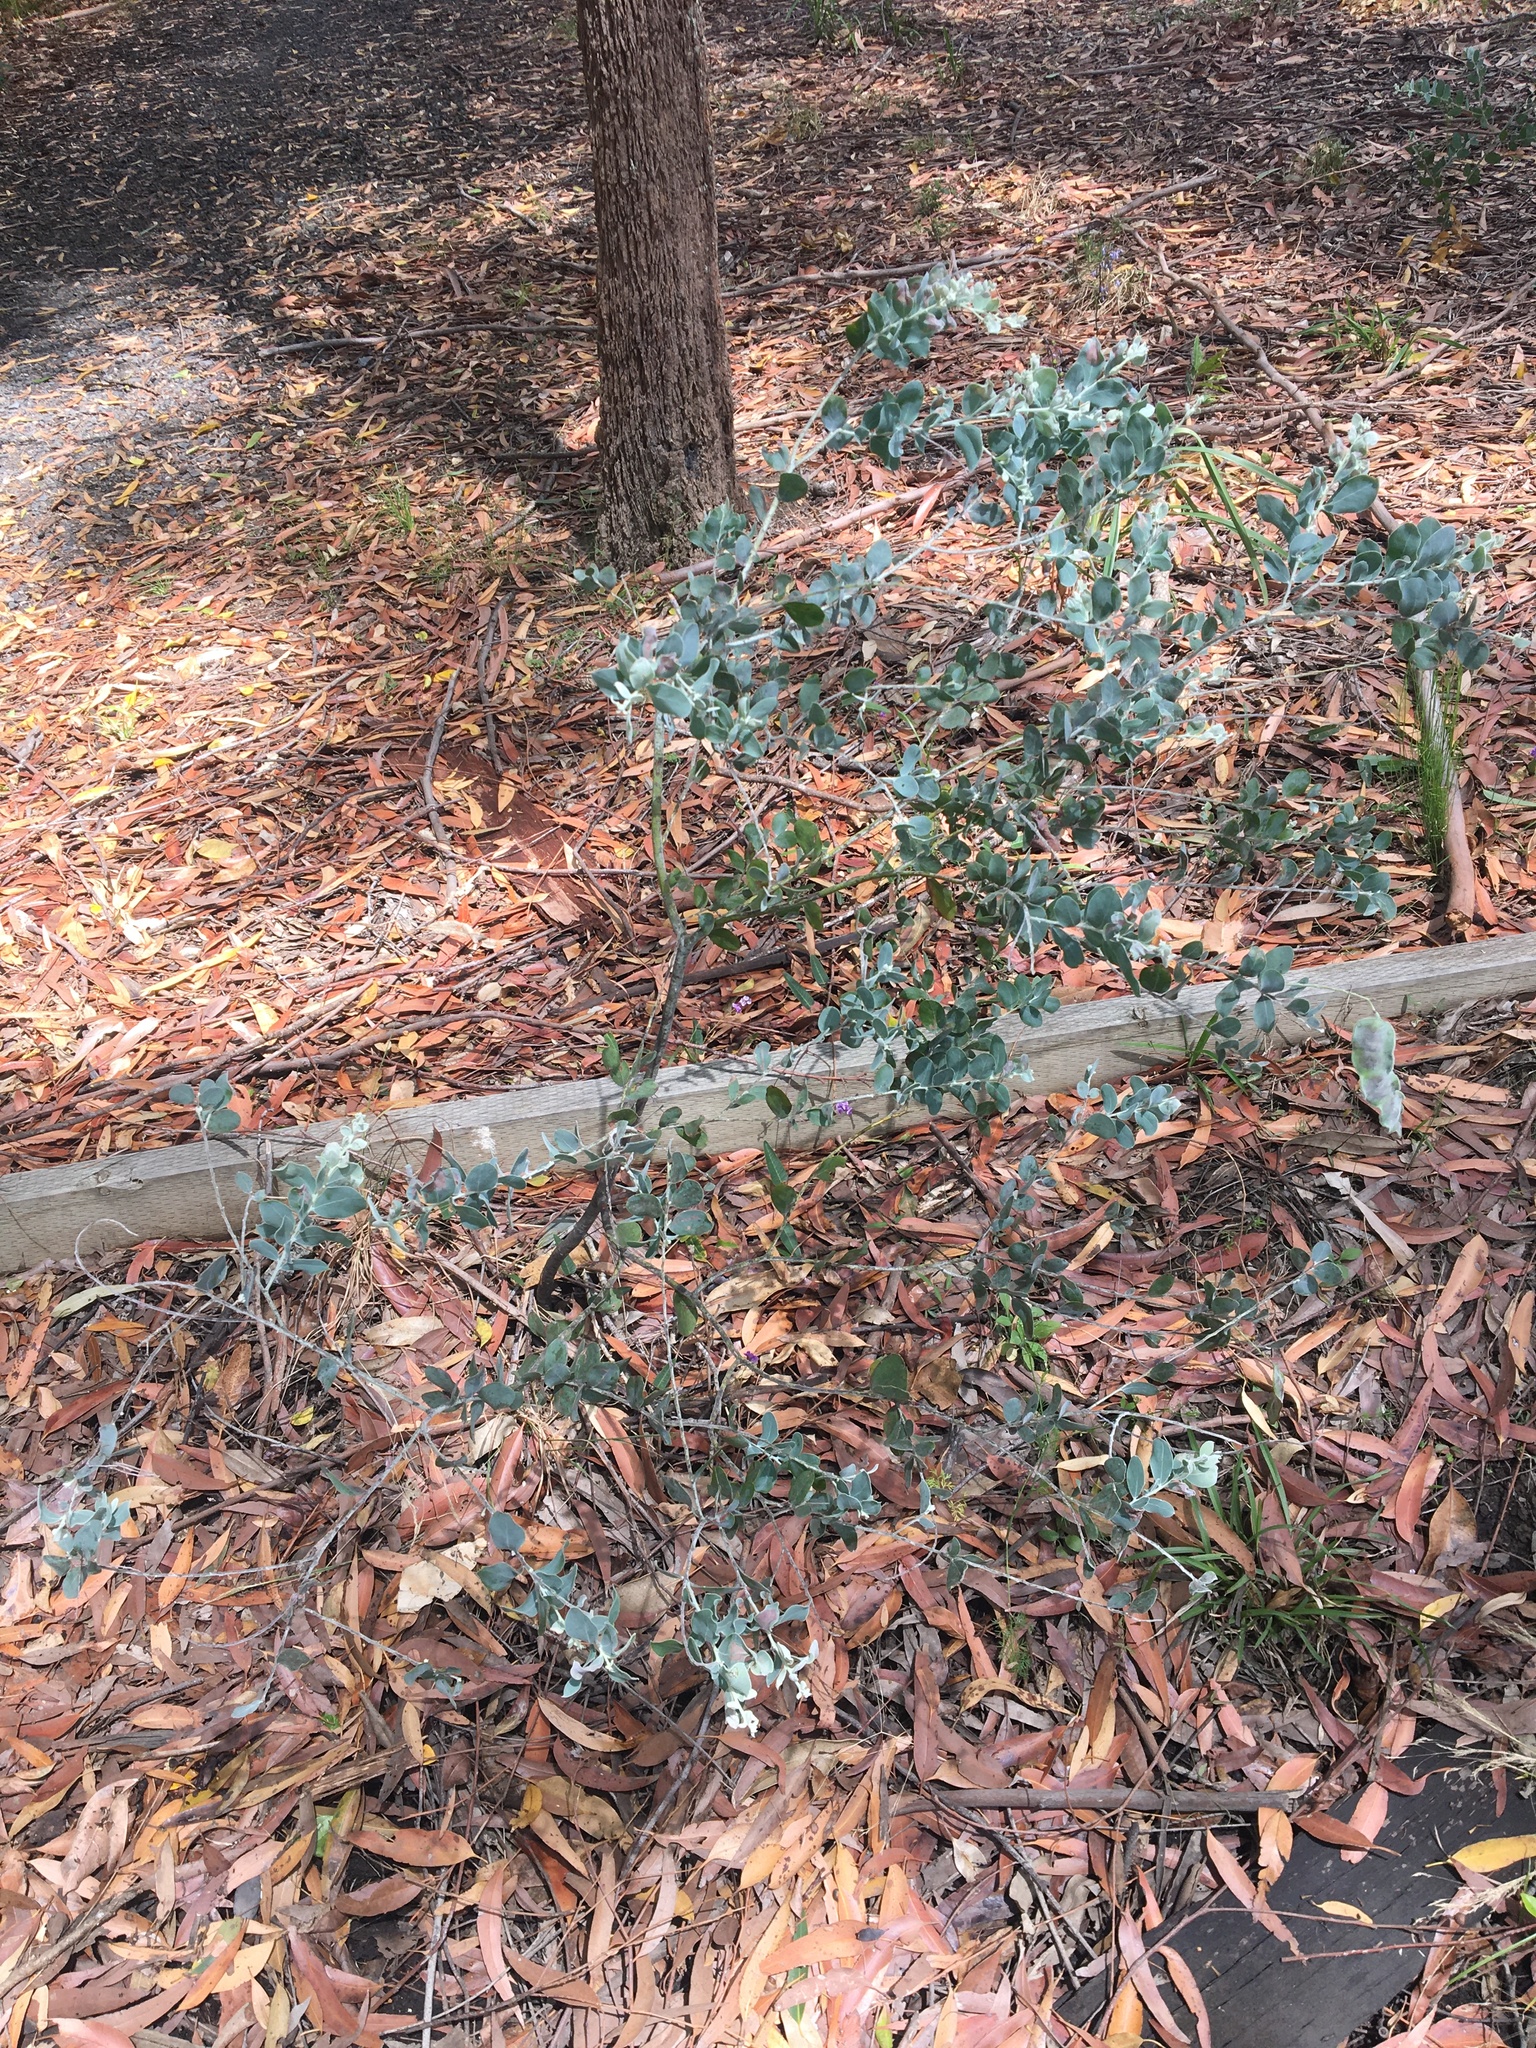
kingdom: Plantae
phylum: Tracheophyta
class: Magnoliopsida
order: Fabales
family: Fabaceae
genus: Acacia
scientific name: Acacia podalyriifolia
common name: Pearl wattle
